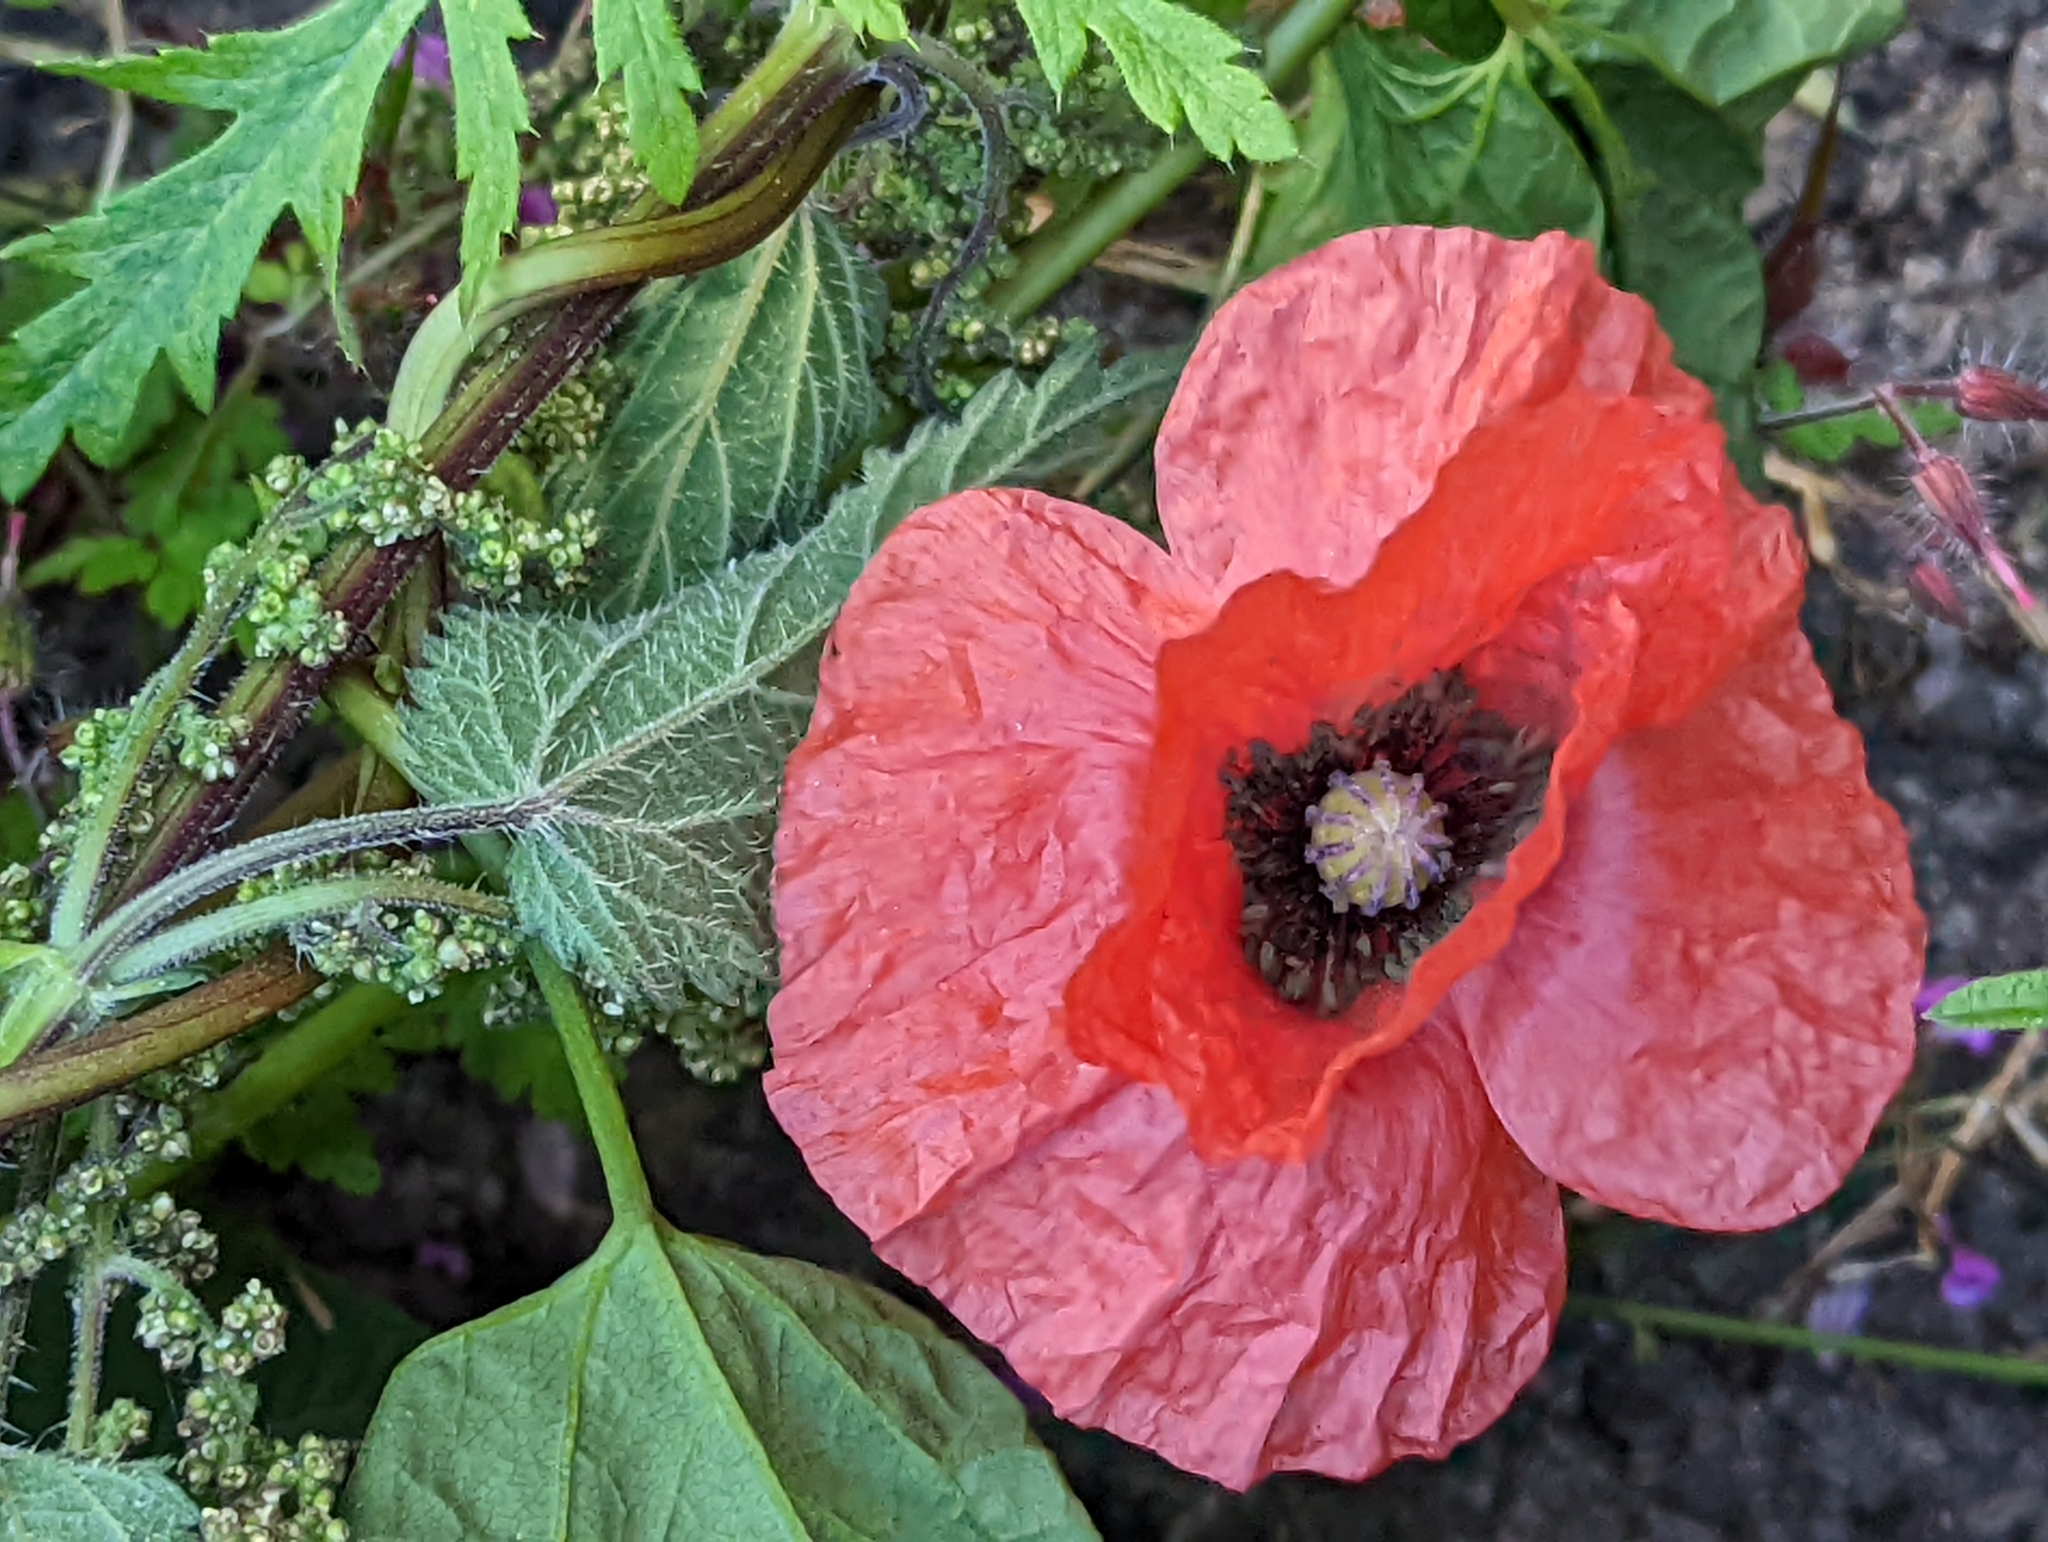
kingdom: Plantae
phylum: Tracheophyta
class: Magnoliopsida
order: Ranunculales
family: Papaveraceae
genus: Papaver
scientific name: Papaver rhoeas
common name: Corn poppy
